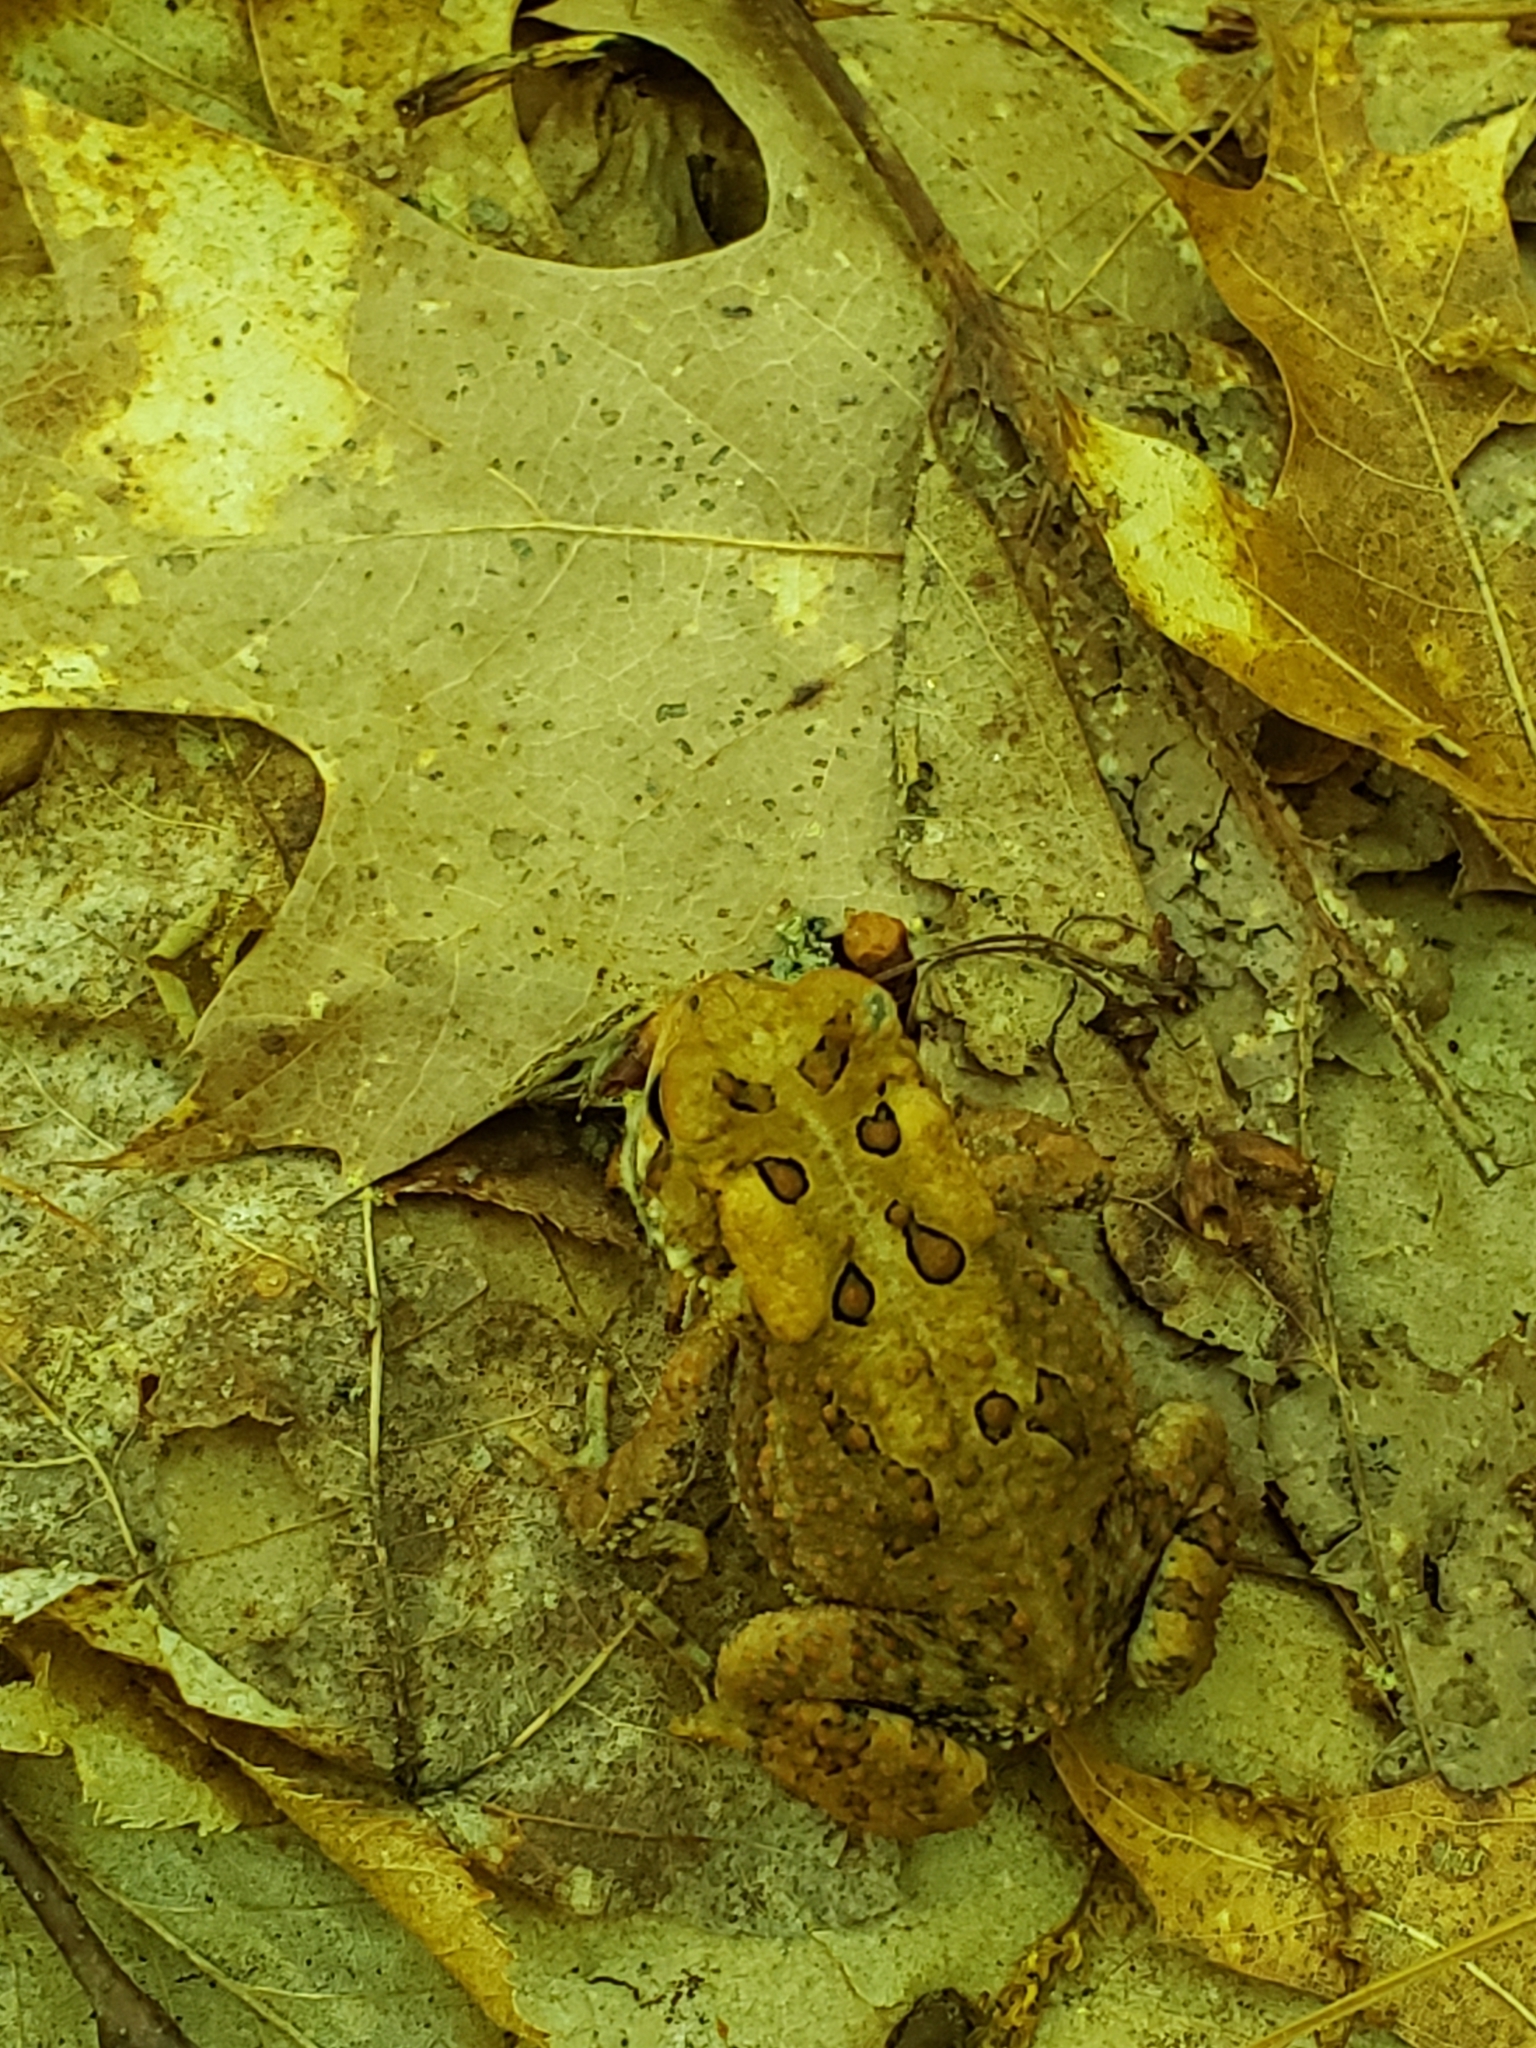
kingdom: Animalia
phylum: Chordata
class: Amphibia
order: Anura
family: Bufonidae
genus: Anaxyrus
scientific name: Anaxyrus americanus
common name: American toad
